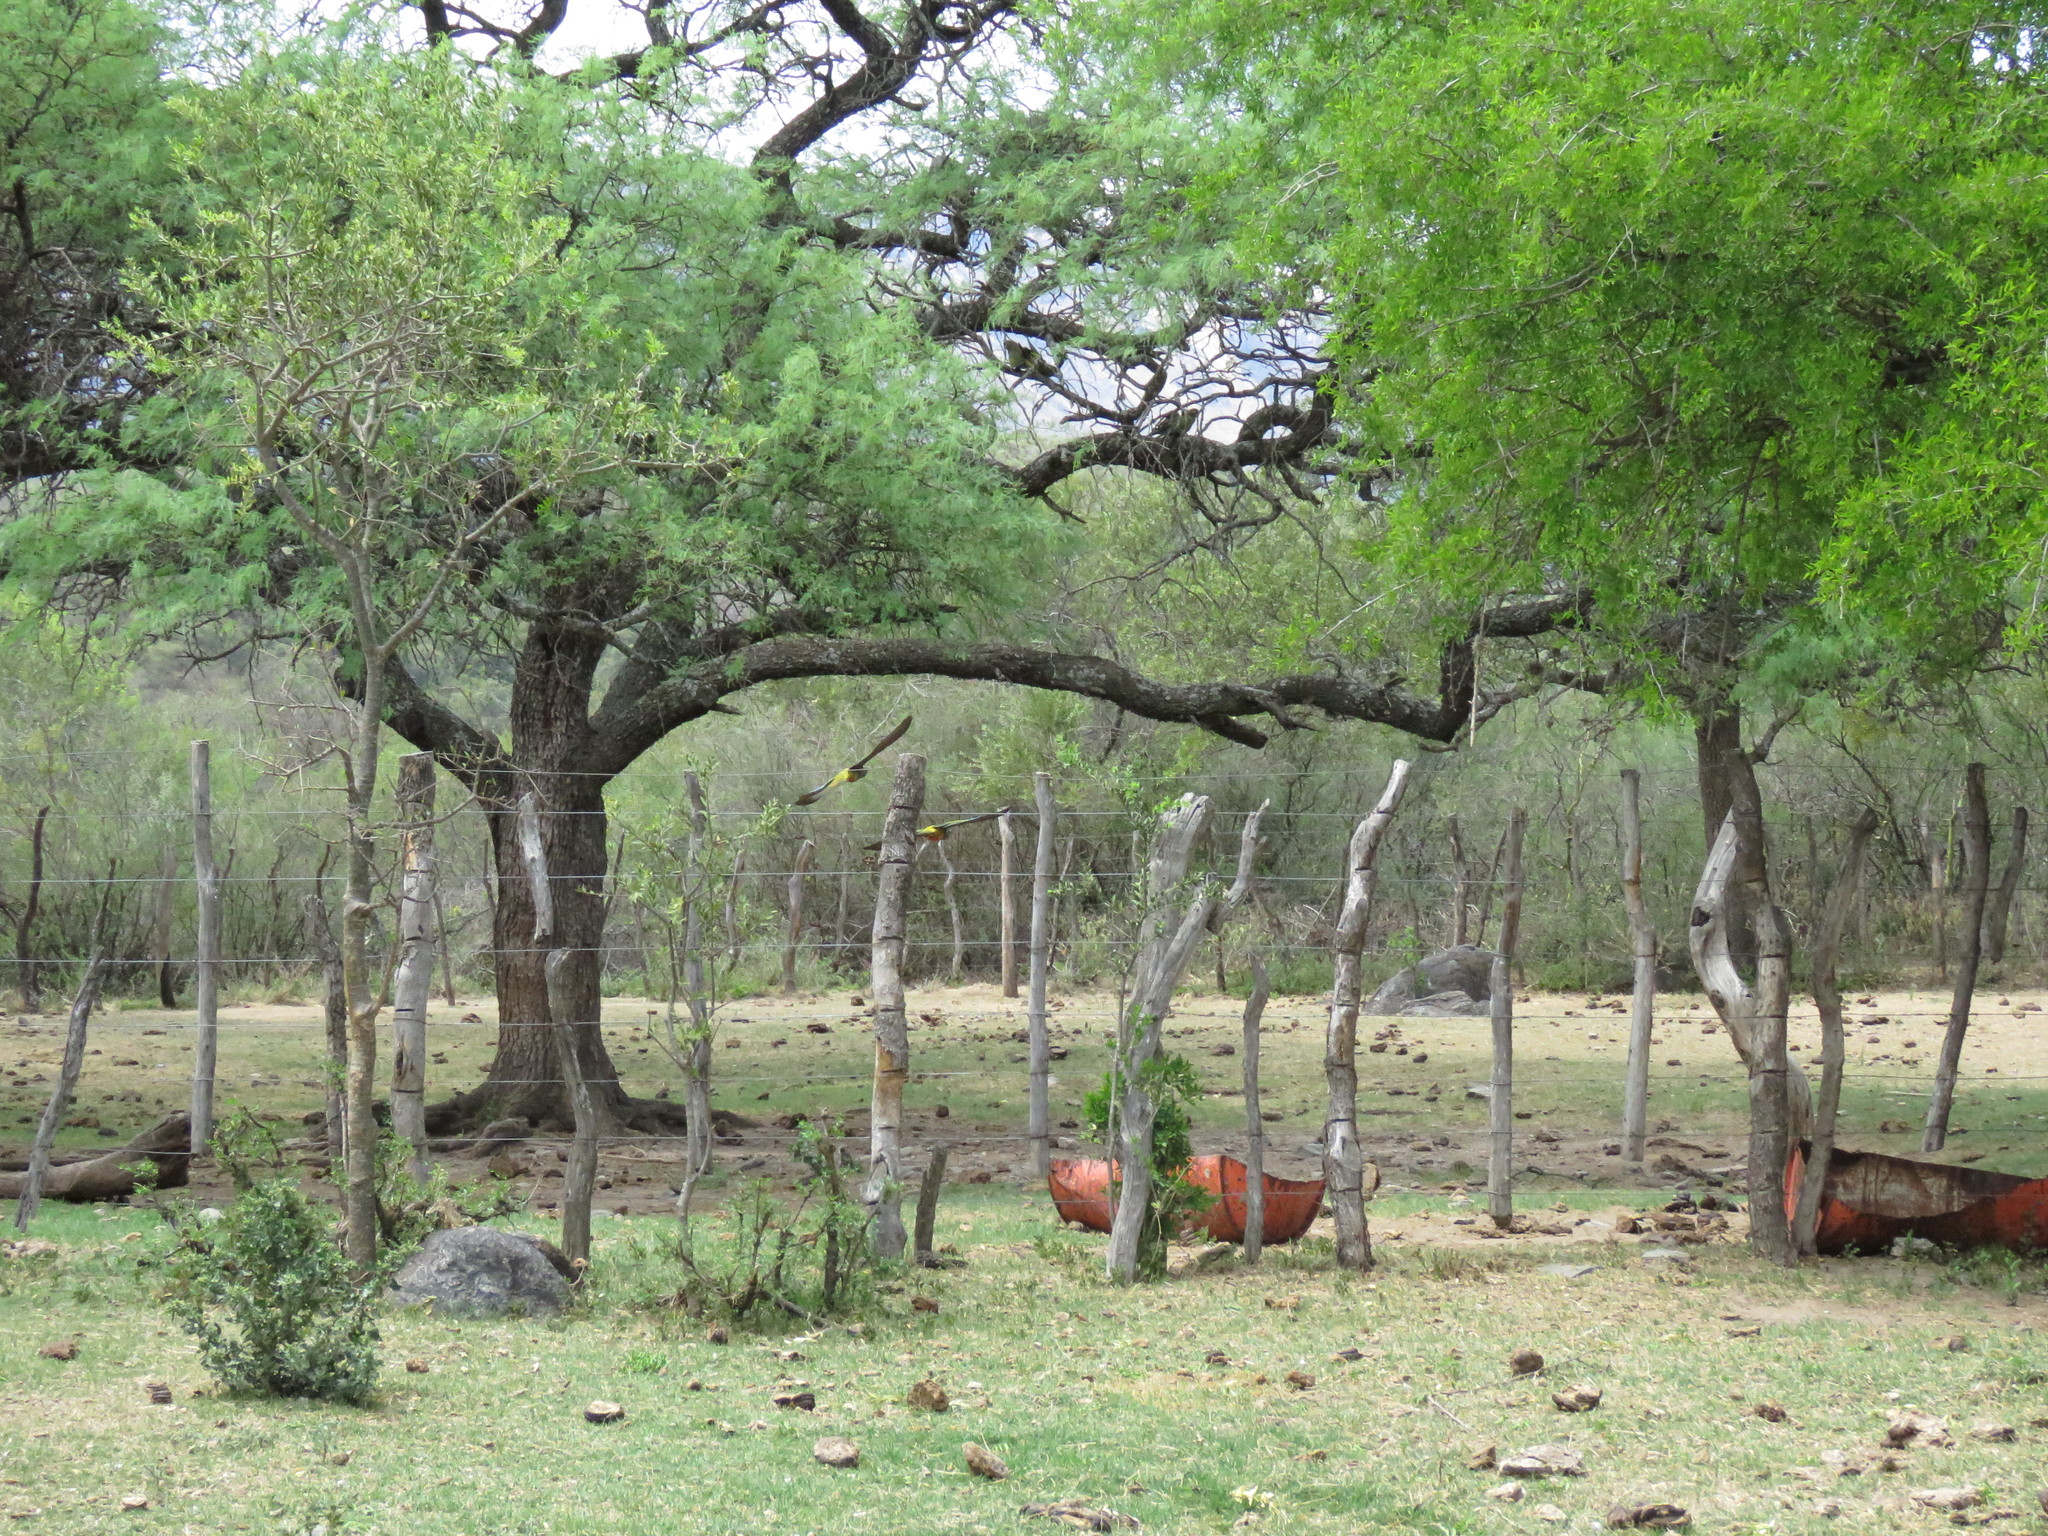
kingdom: Animalia
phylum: Chordata
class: Aves
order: Psittaciformes
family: Psittacidae
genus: Cyanoliseus
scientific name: Cyanoliseus patagonus
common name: Burrowing parrot
